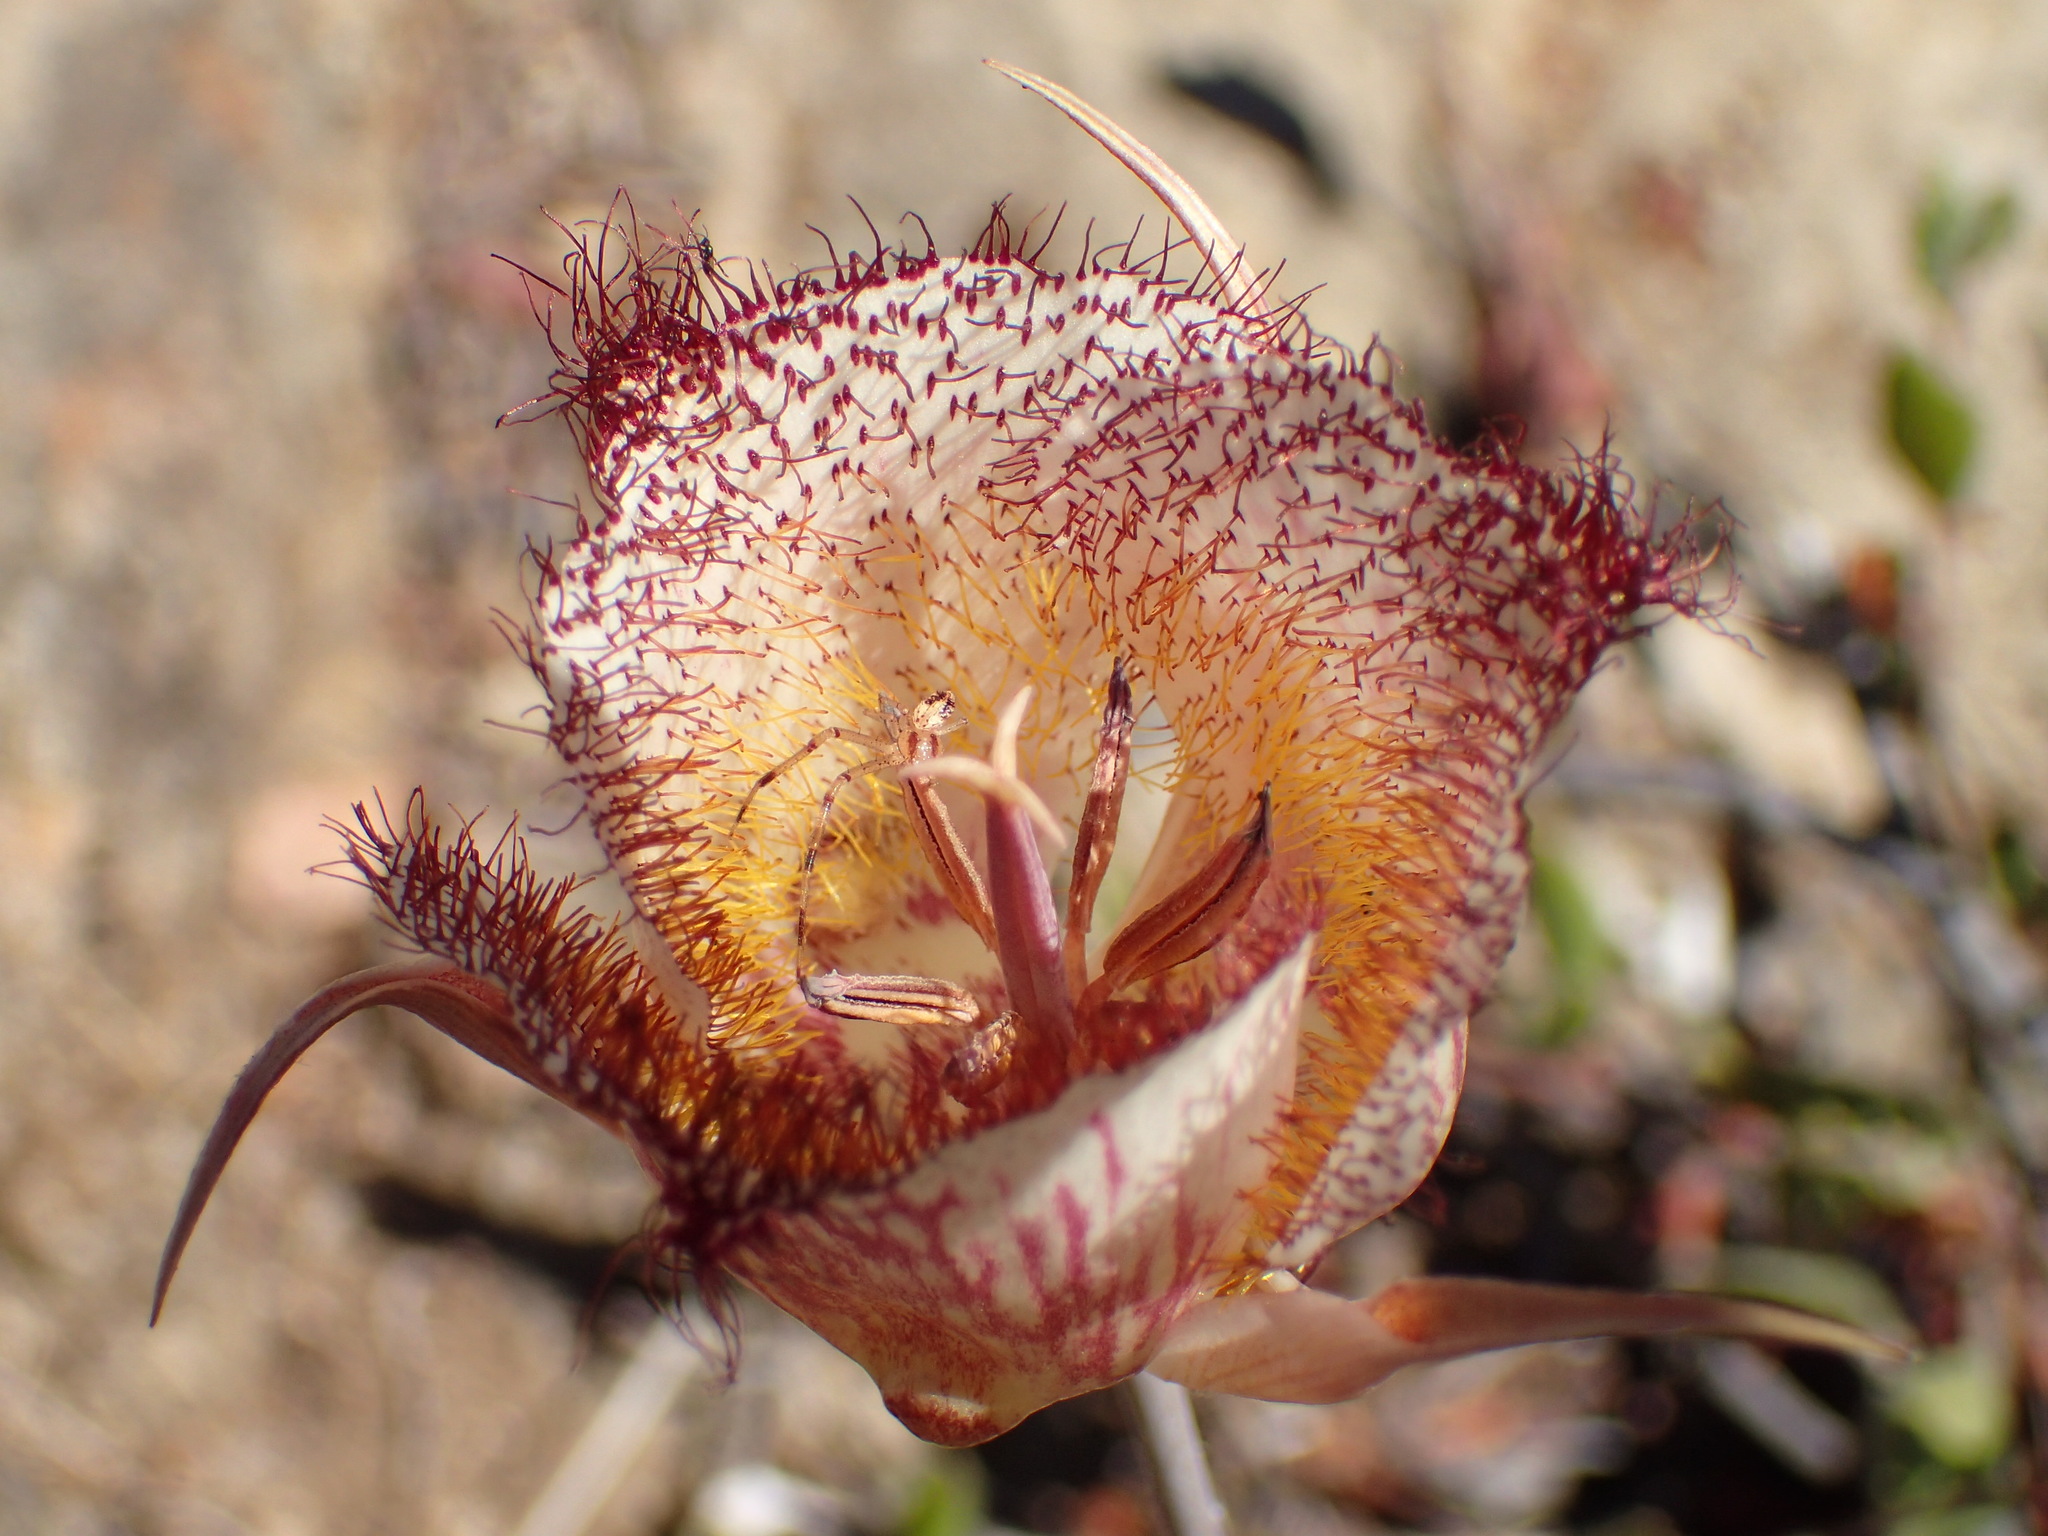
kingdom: Plantae
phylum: Tracheophyta
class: Liliopsida
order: Liliales
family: Liliaceae
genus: Calochortus
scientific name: Calochortus fimbriatus
